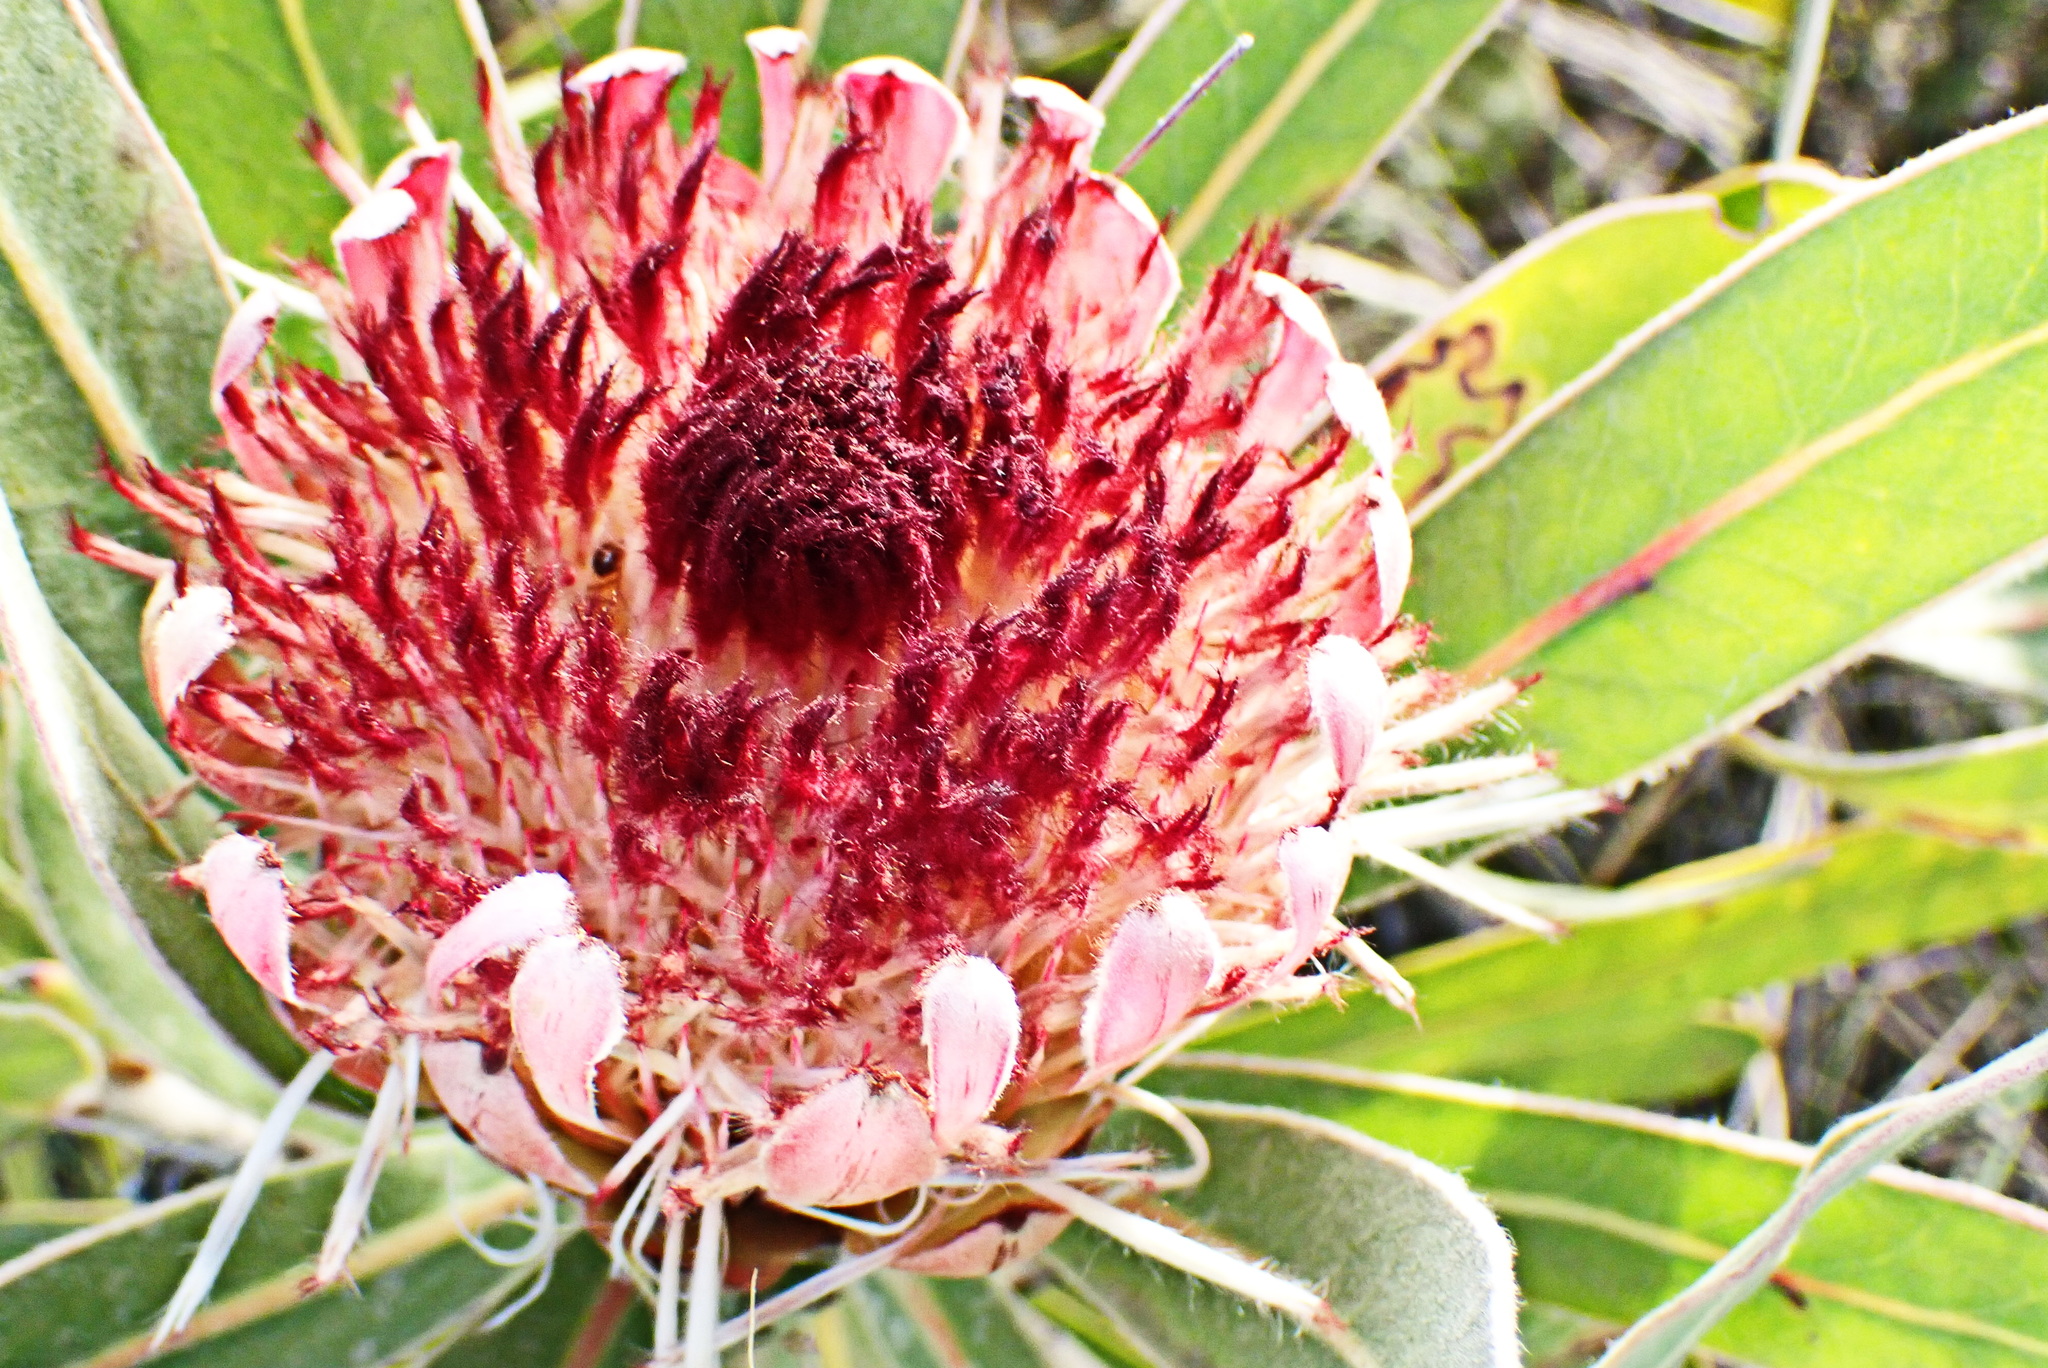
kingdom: Plantae
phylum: Tracheophyta
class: Magnoliopsida
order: Proteales
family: Proteaceae
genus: Protea
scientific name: Protea lorifolia
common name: Strap-leaved protea
